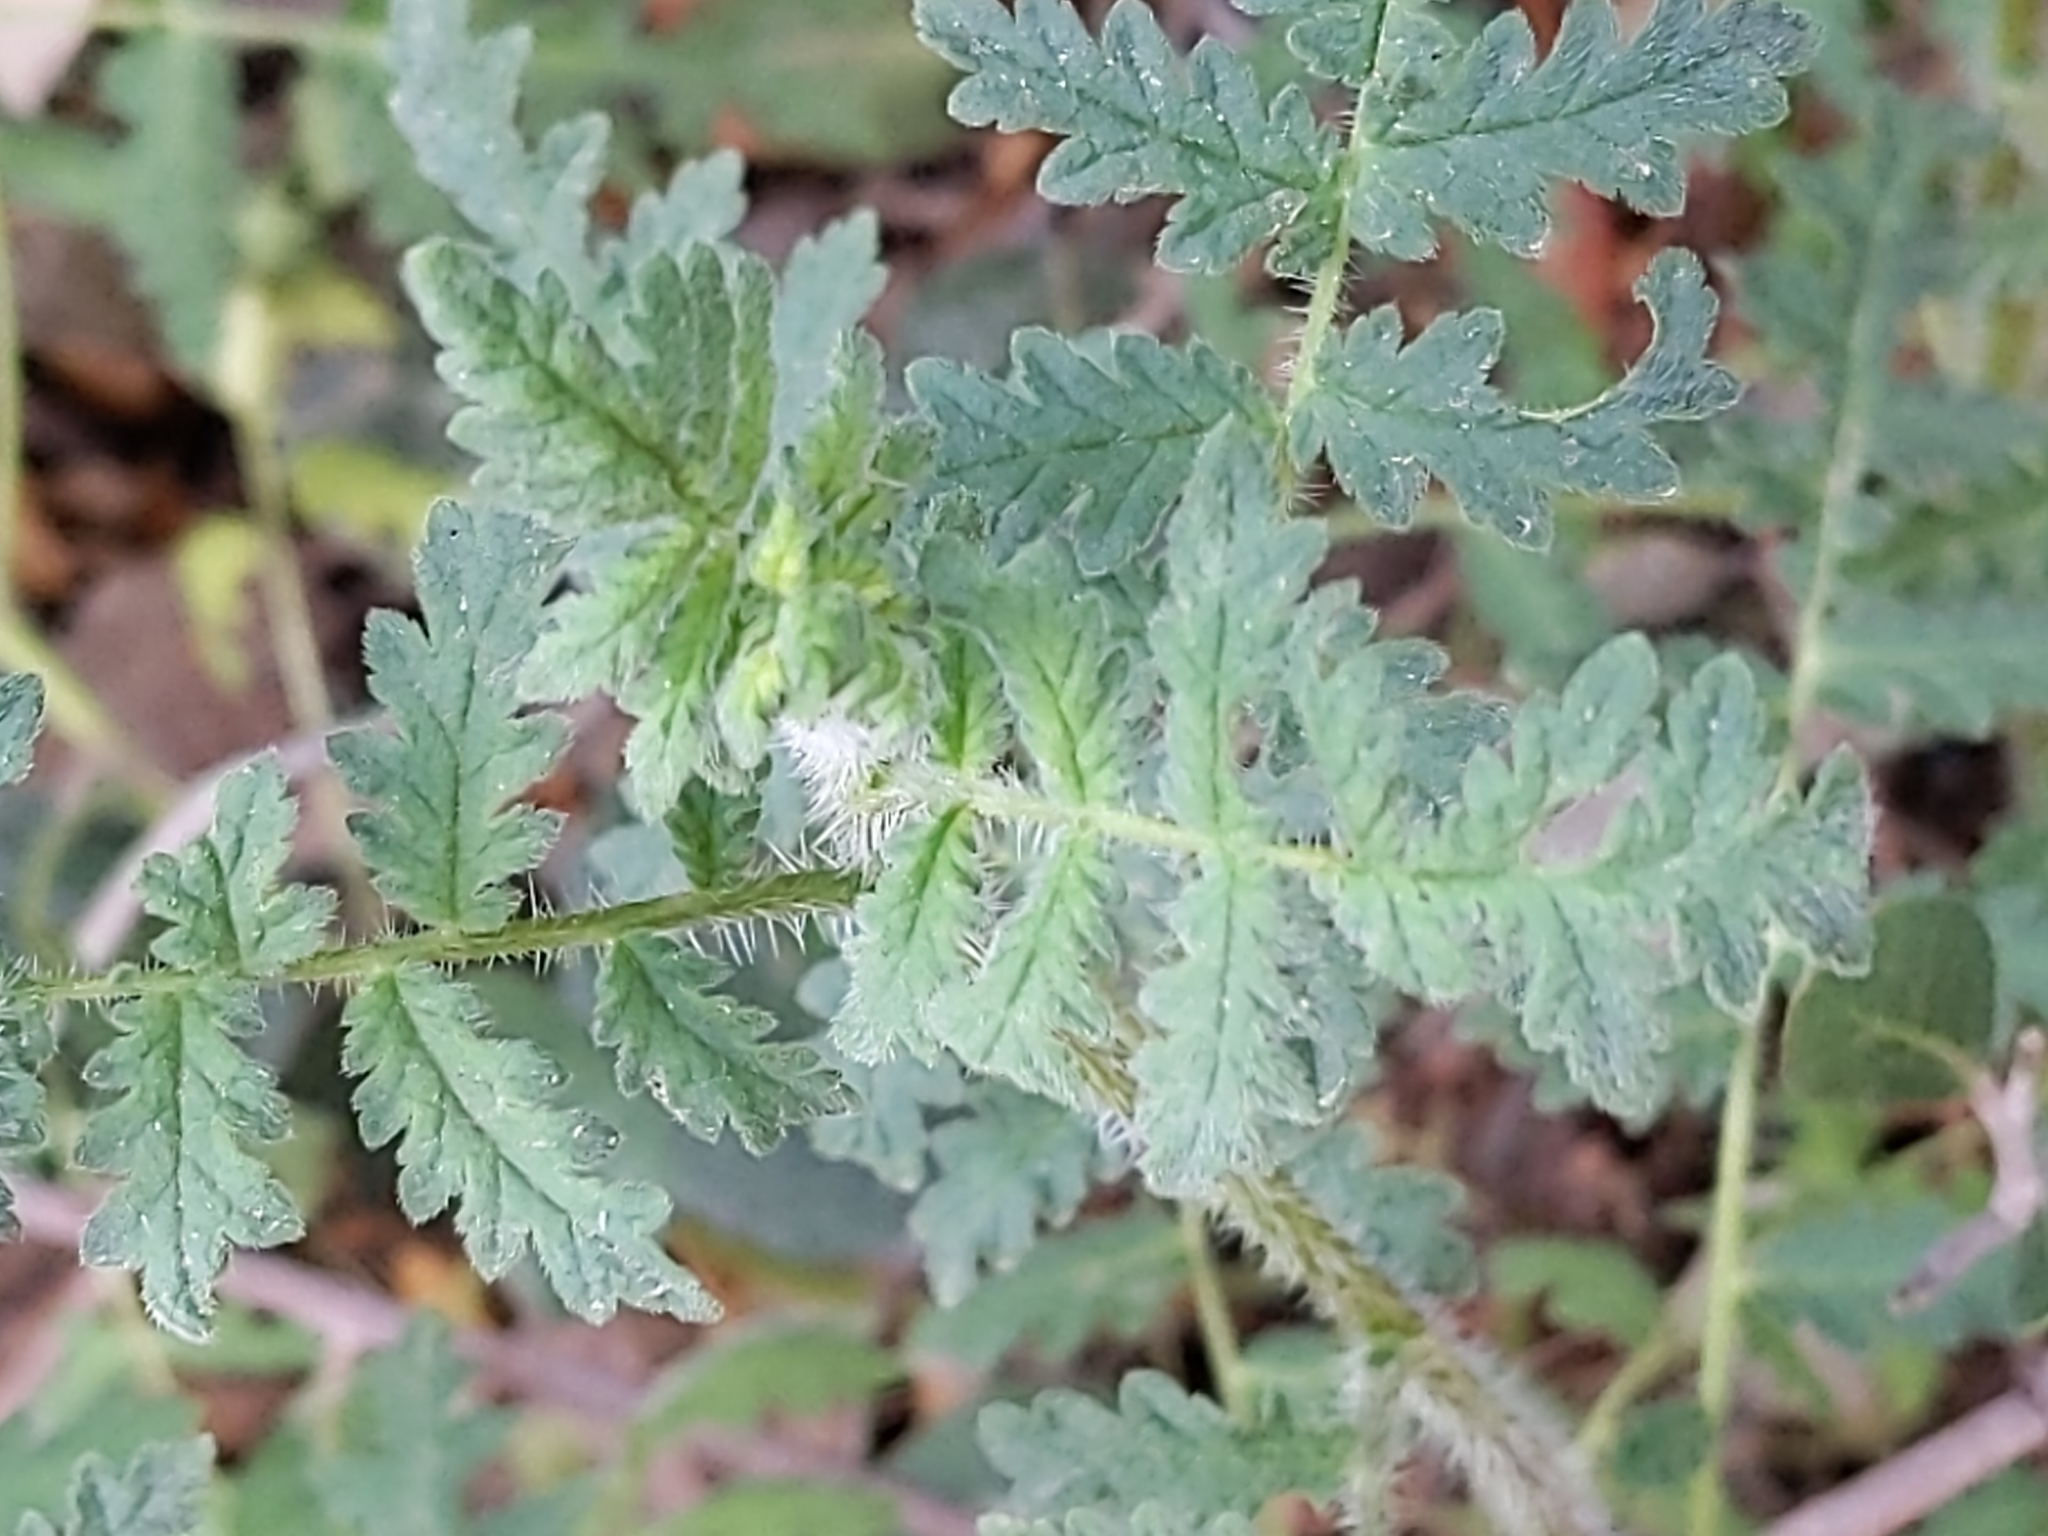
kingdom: Plantae
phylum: Tracheophyta
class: Magnoliopsida
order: Boraginales
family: Hydrophyllaceae
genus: Eucrypta
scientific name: Eucrypta chrysanthemifolia
